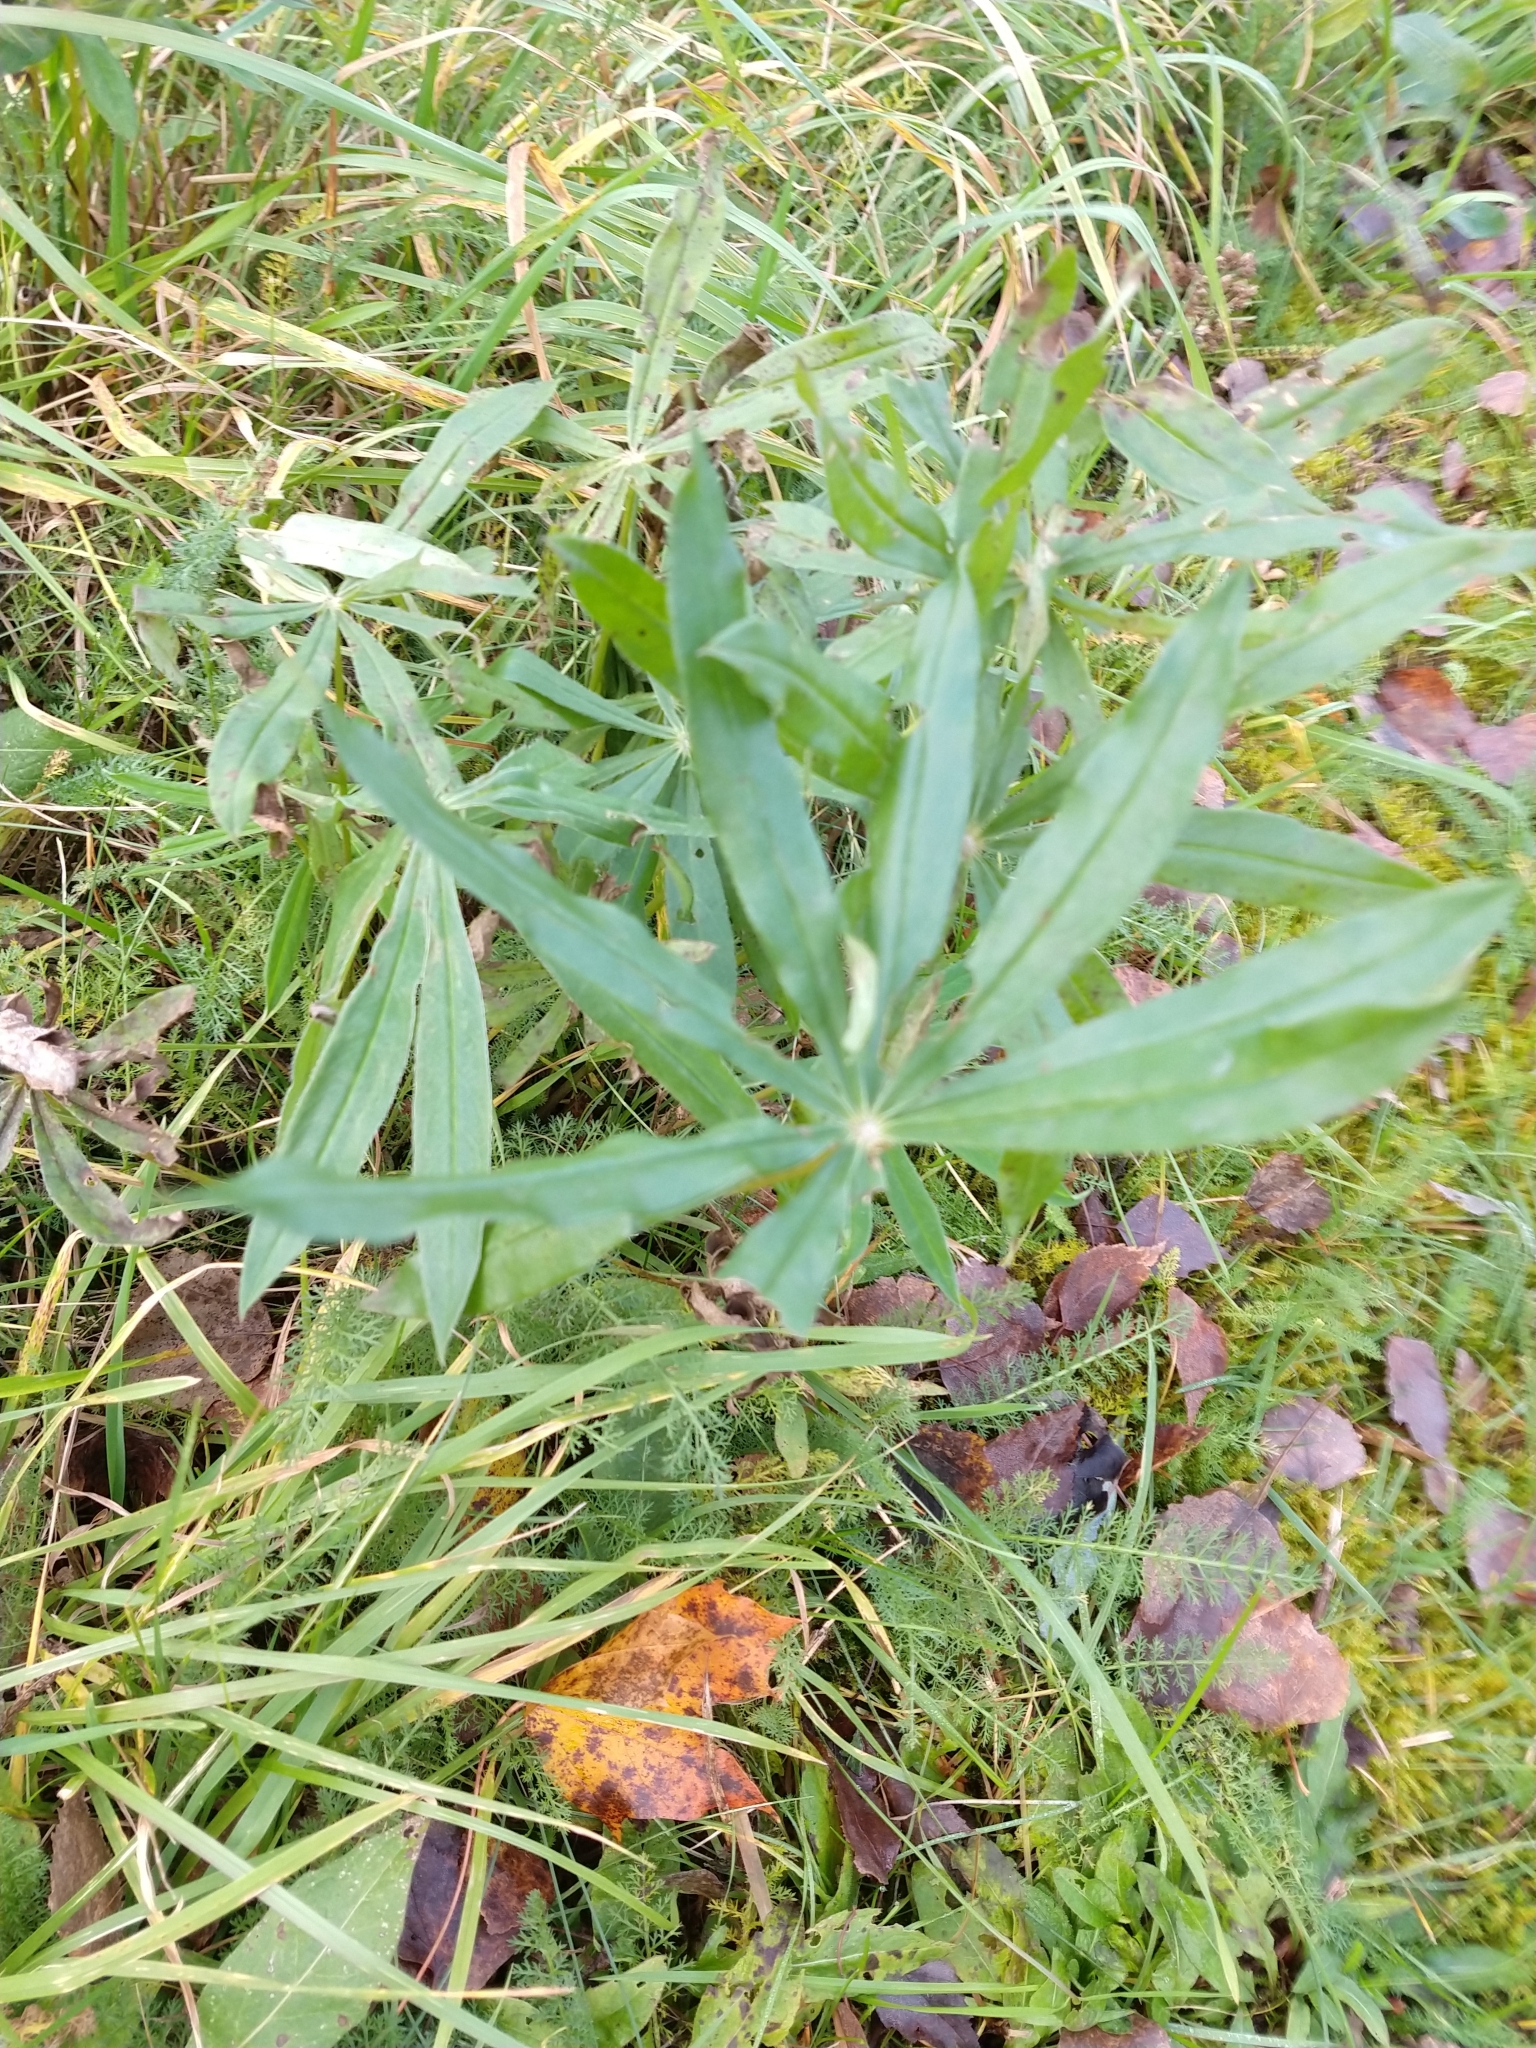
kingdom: Plantae
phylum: Tracheophyta
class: Magnoliopsida
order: Fabales
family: Fabaceae
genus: Lupinus
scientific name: Lupinus polyphyllus
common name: Garden lupin
